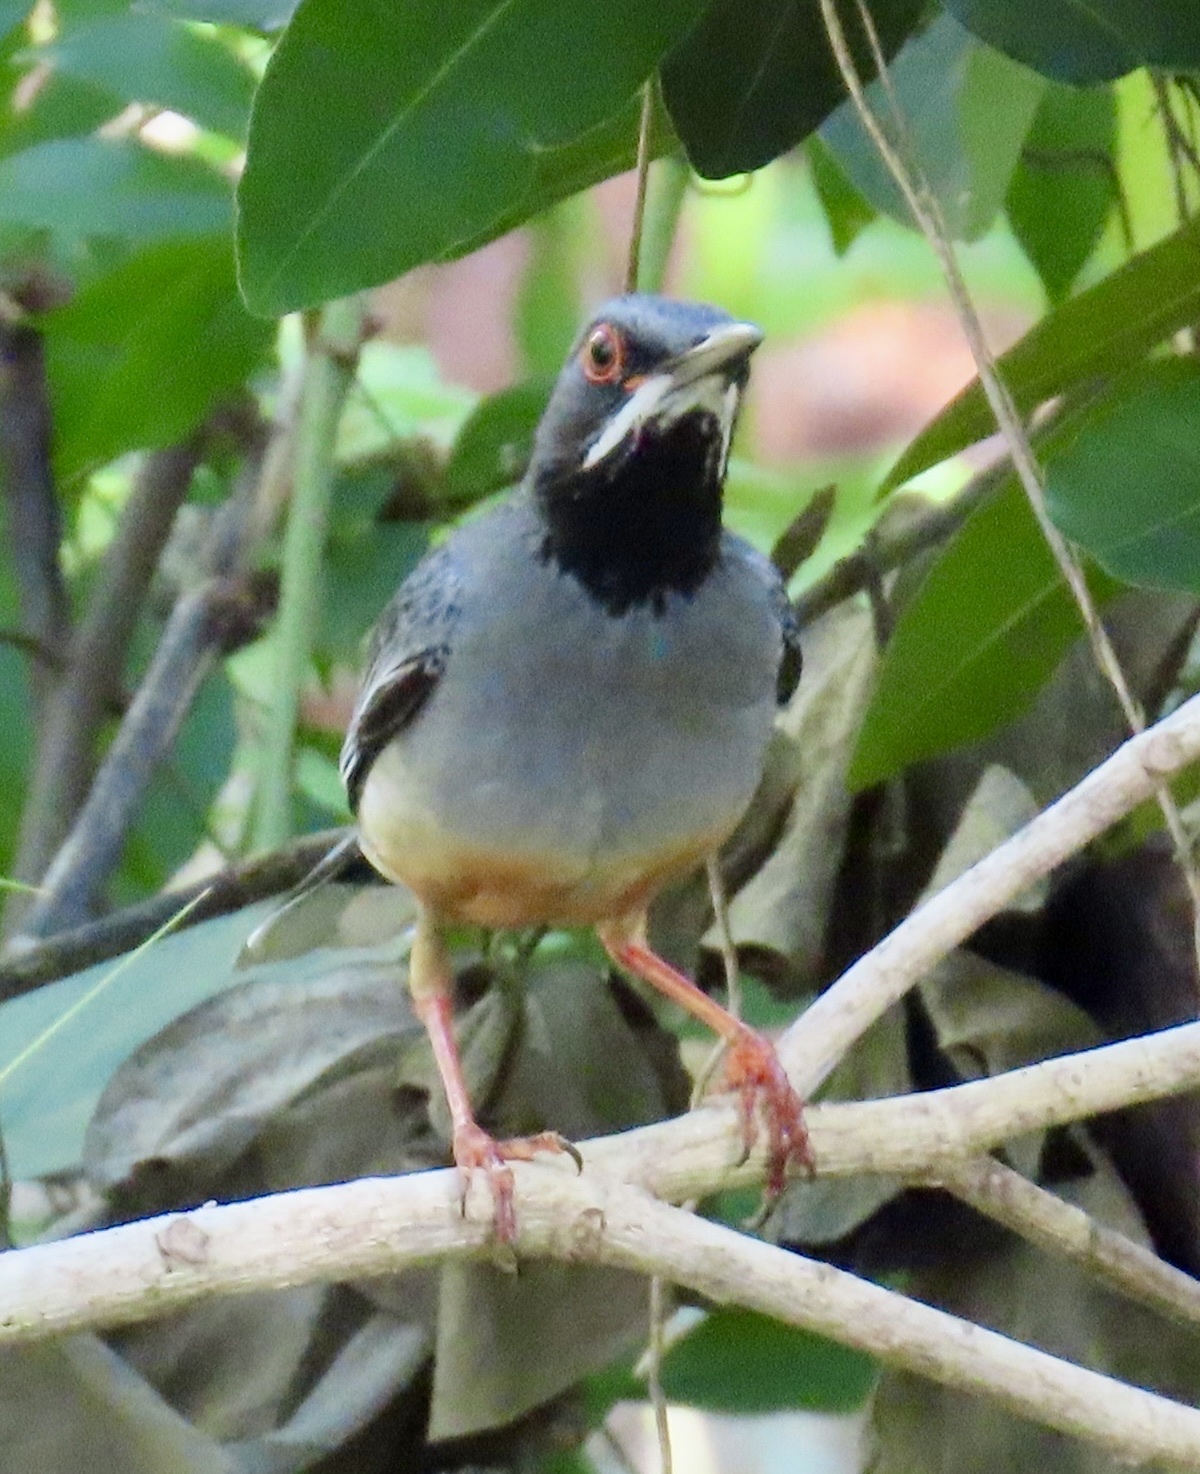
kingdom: Animalia
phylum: Chordata
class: Aves
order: Passeriformes
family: Turdidae
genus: Turdus
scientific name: Turdus plumbeus
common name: Red-legged thrush
